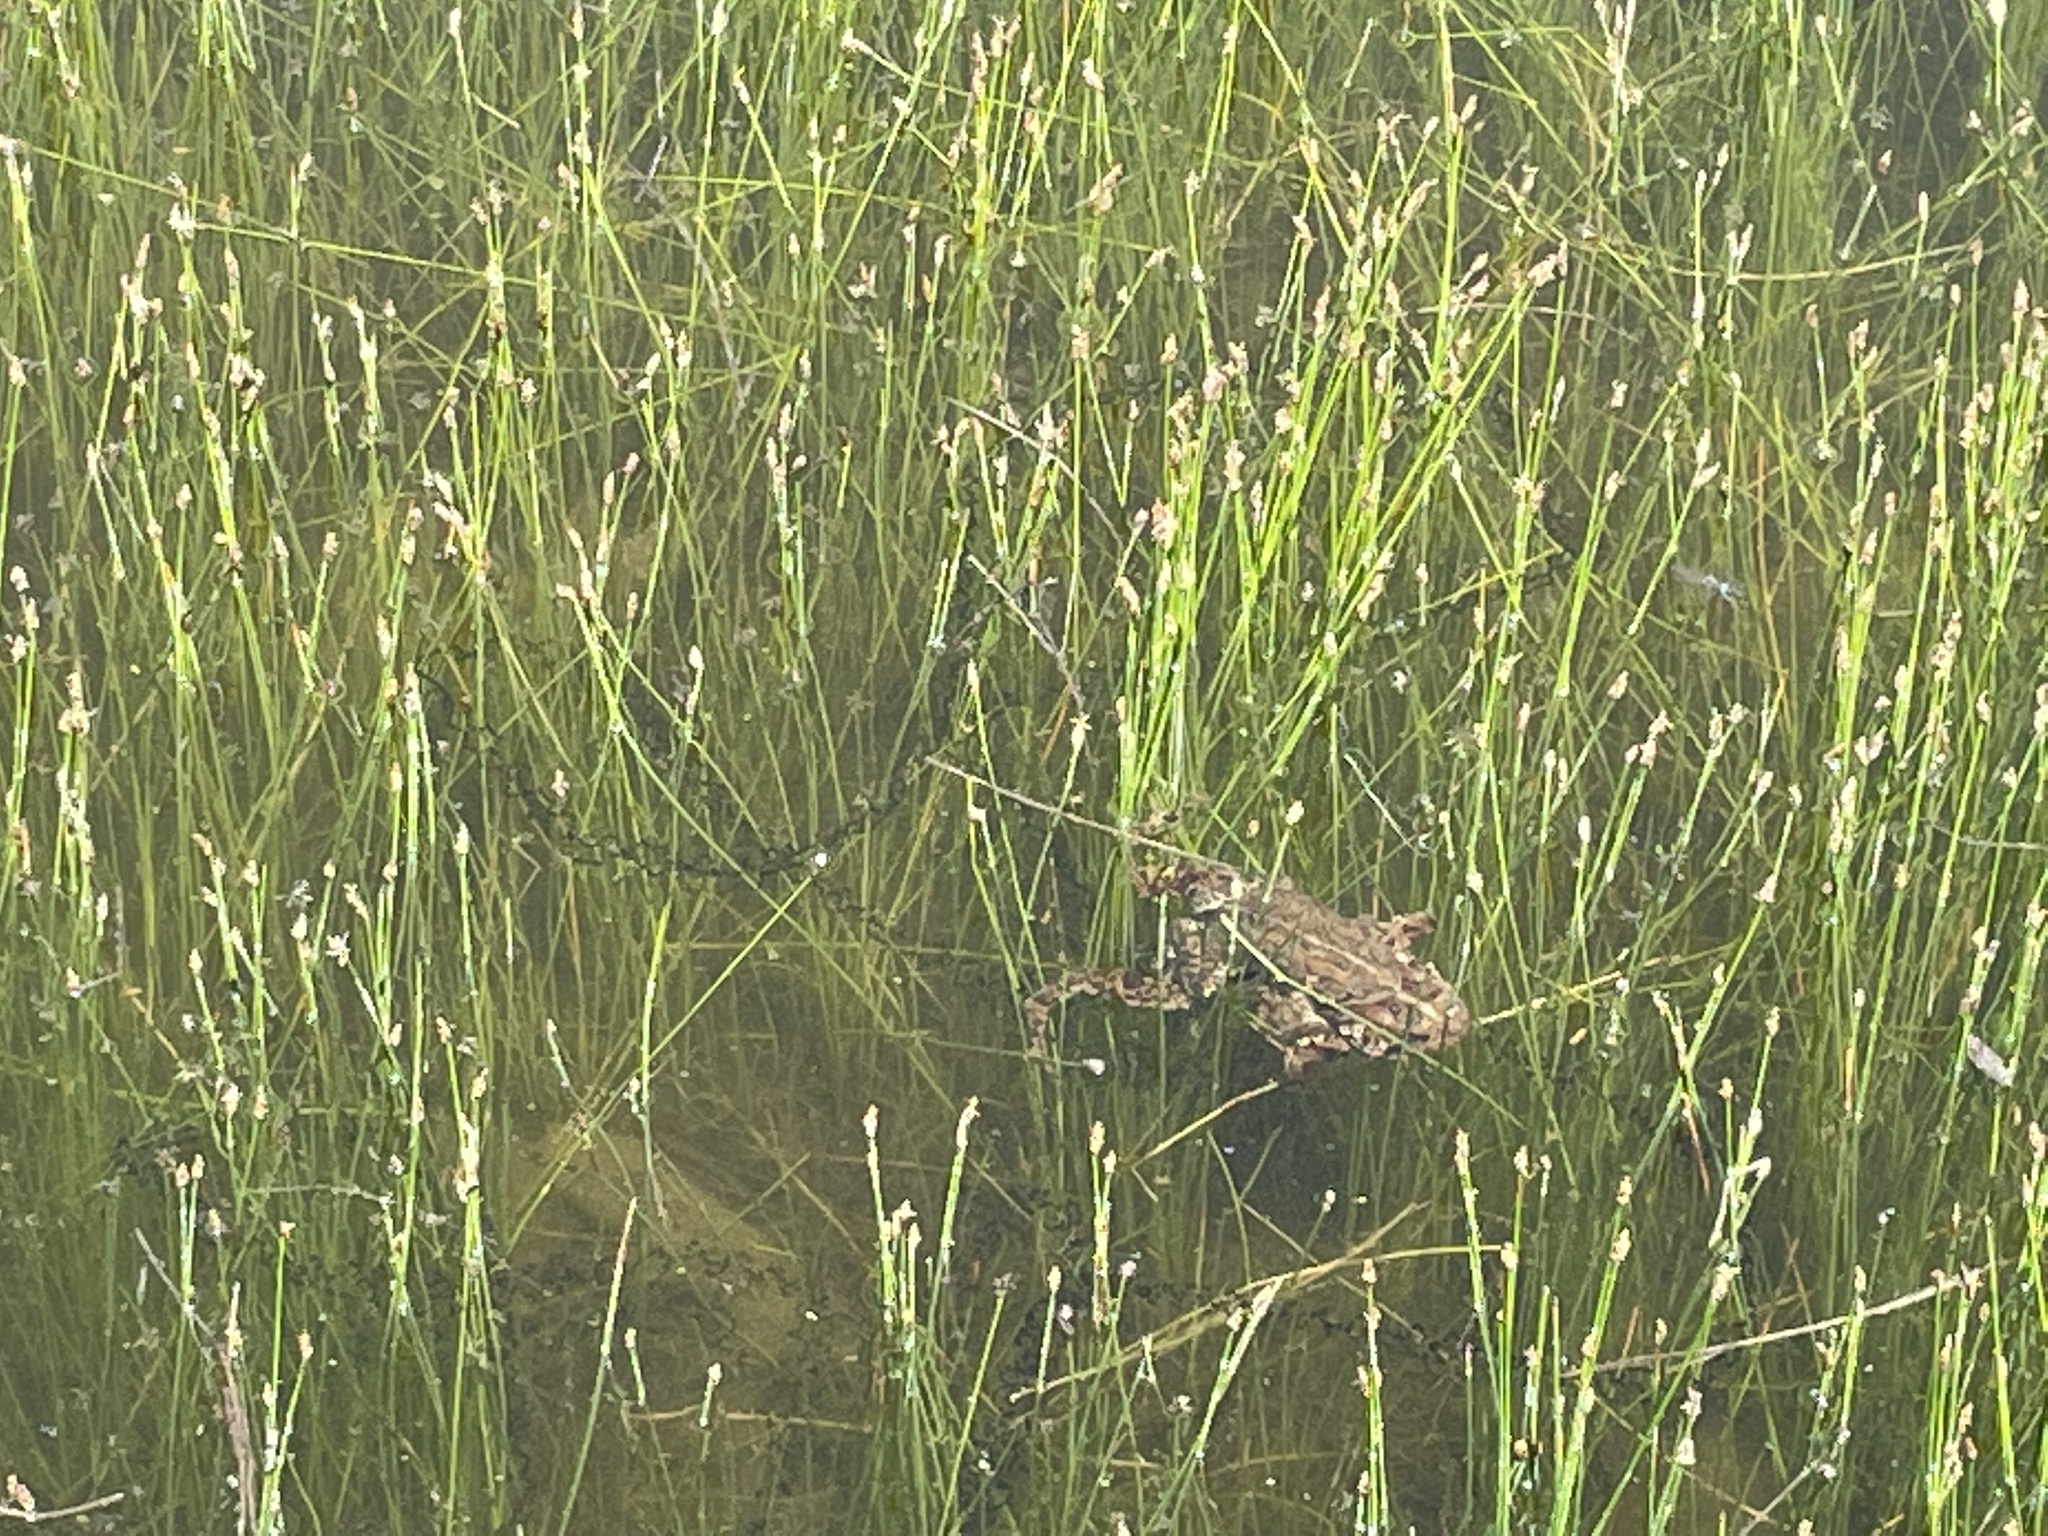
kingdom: Animalia
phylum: Chordata
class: Amphibia
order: Anura
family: Bufonidae
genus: Anaxyrus
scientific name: Anaxyrus americanus
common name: American toad
